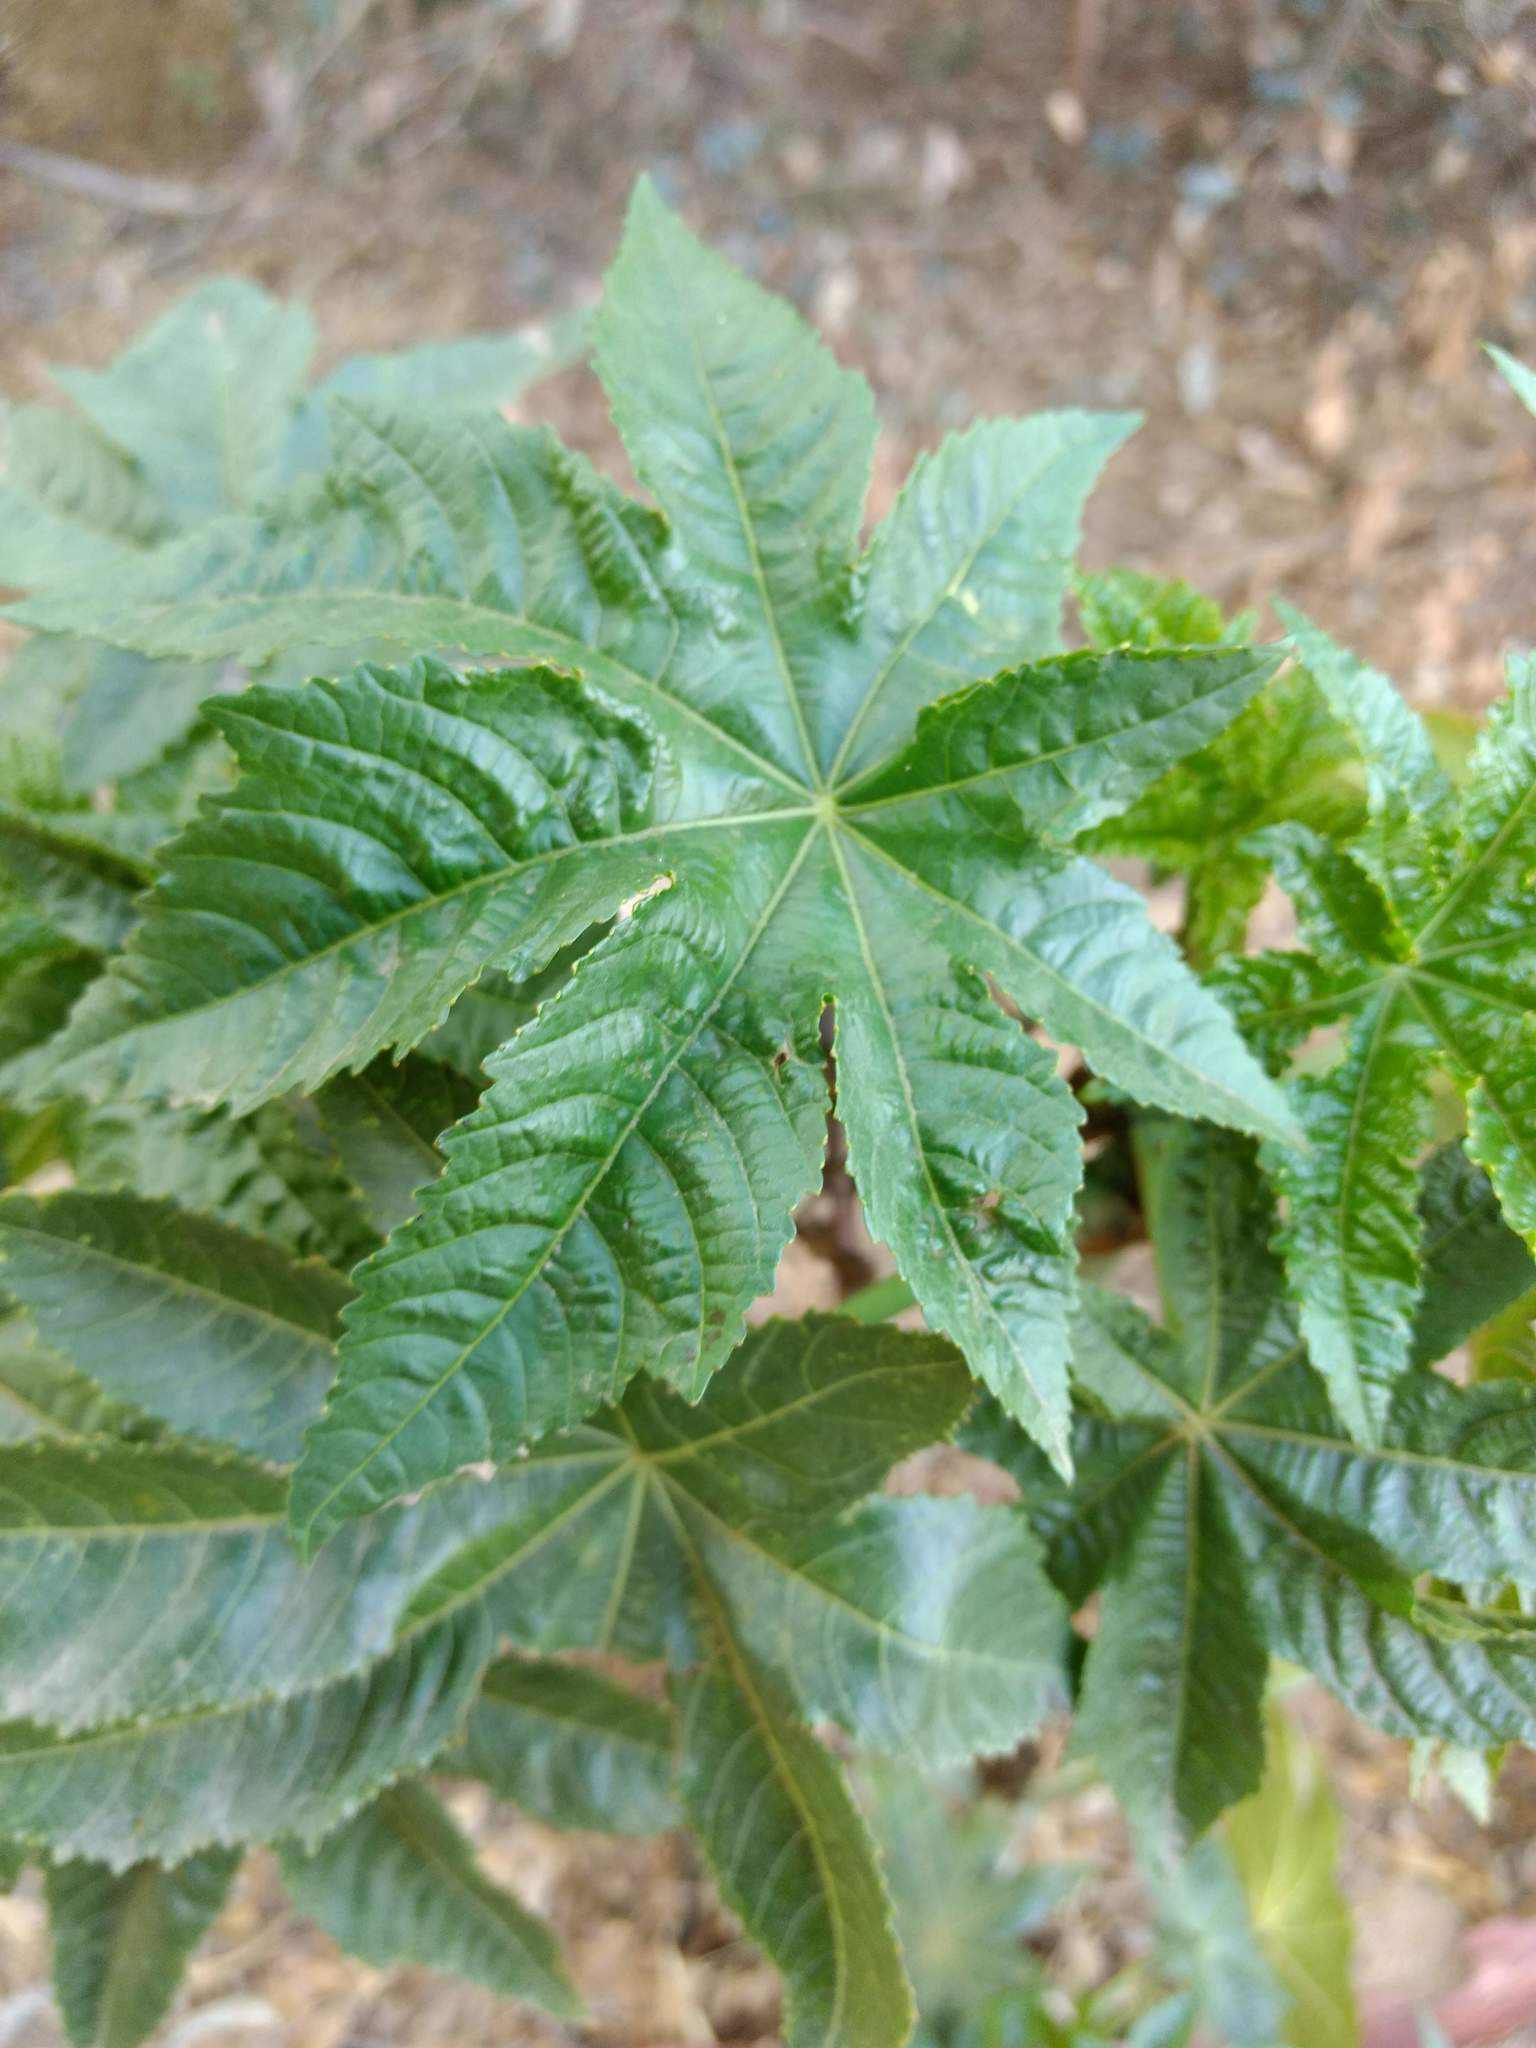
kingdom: Plantae
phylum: Tracheophyta
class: Magnoliopsida
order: Malpighiales
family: Euphorbiaceae
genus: Ricinus
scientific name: Ricinus communis
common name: Castor-oil-plant
